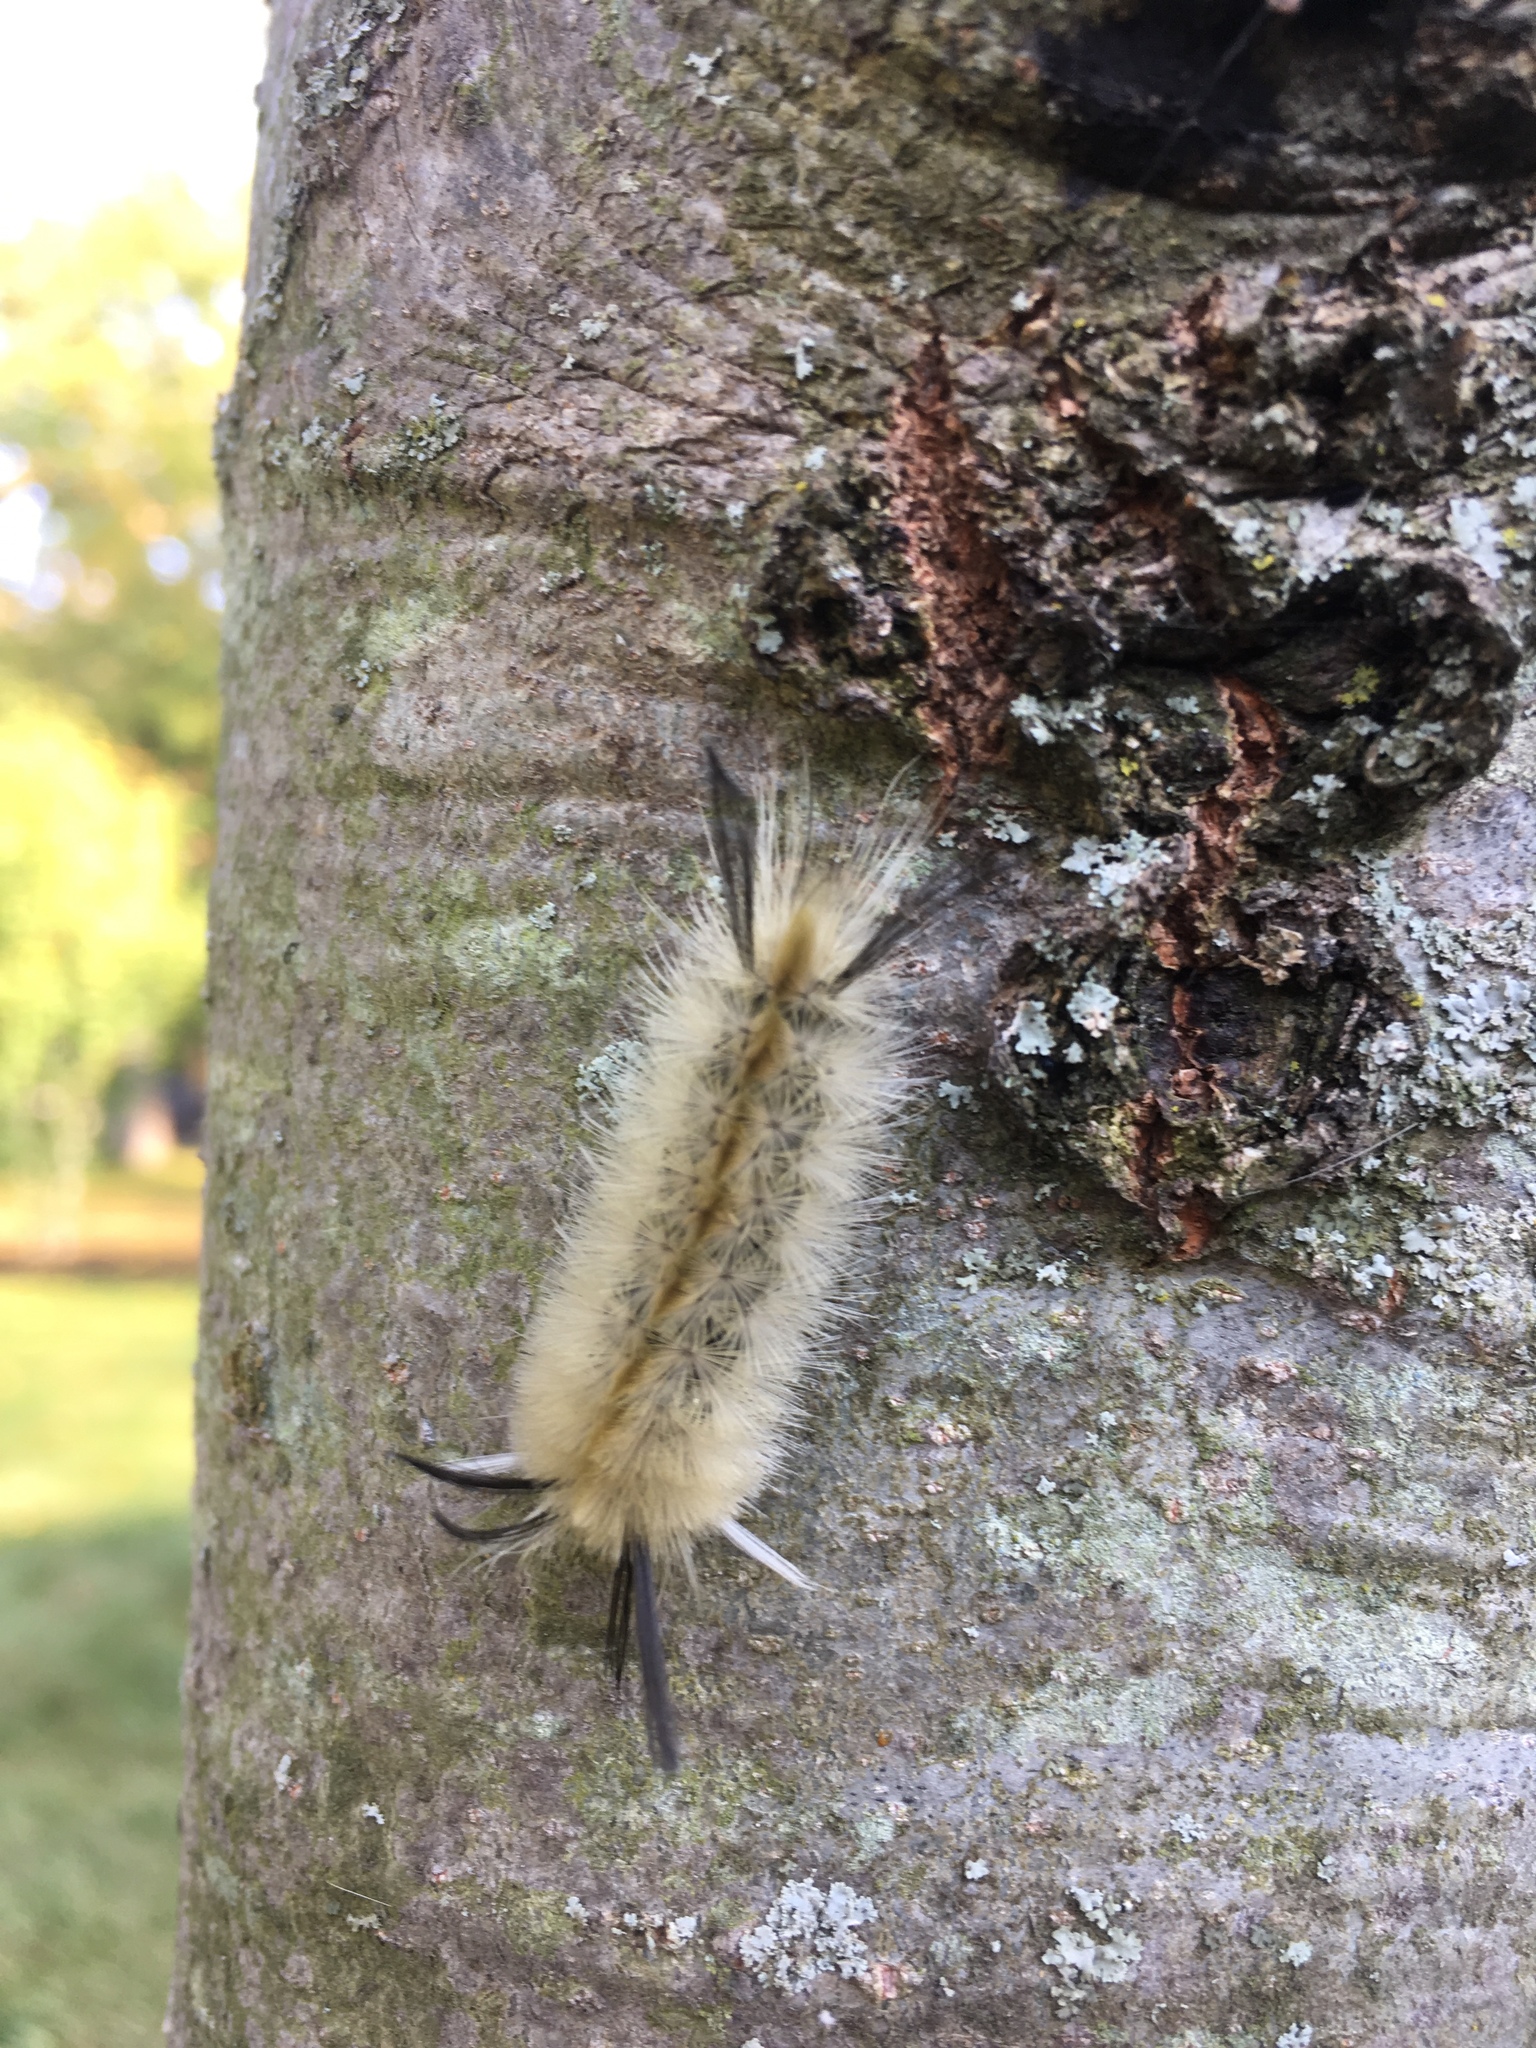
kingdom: Animalia
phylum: Arthropoda
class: Insecta
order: Lepidoptera
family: Erebidae
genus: Halysidota
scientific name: Halysidota tessellaris
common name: Banded tussock moth
